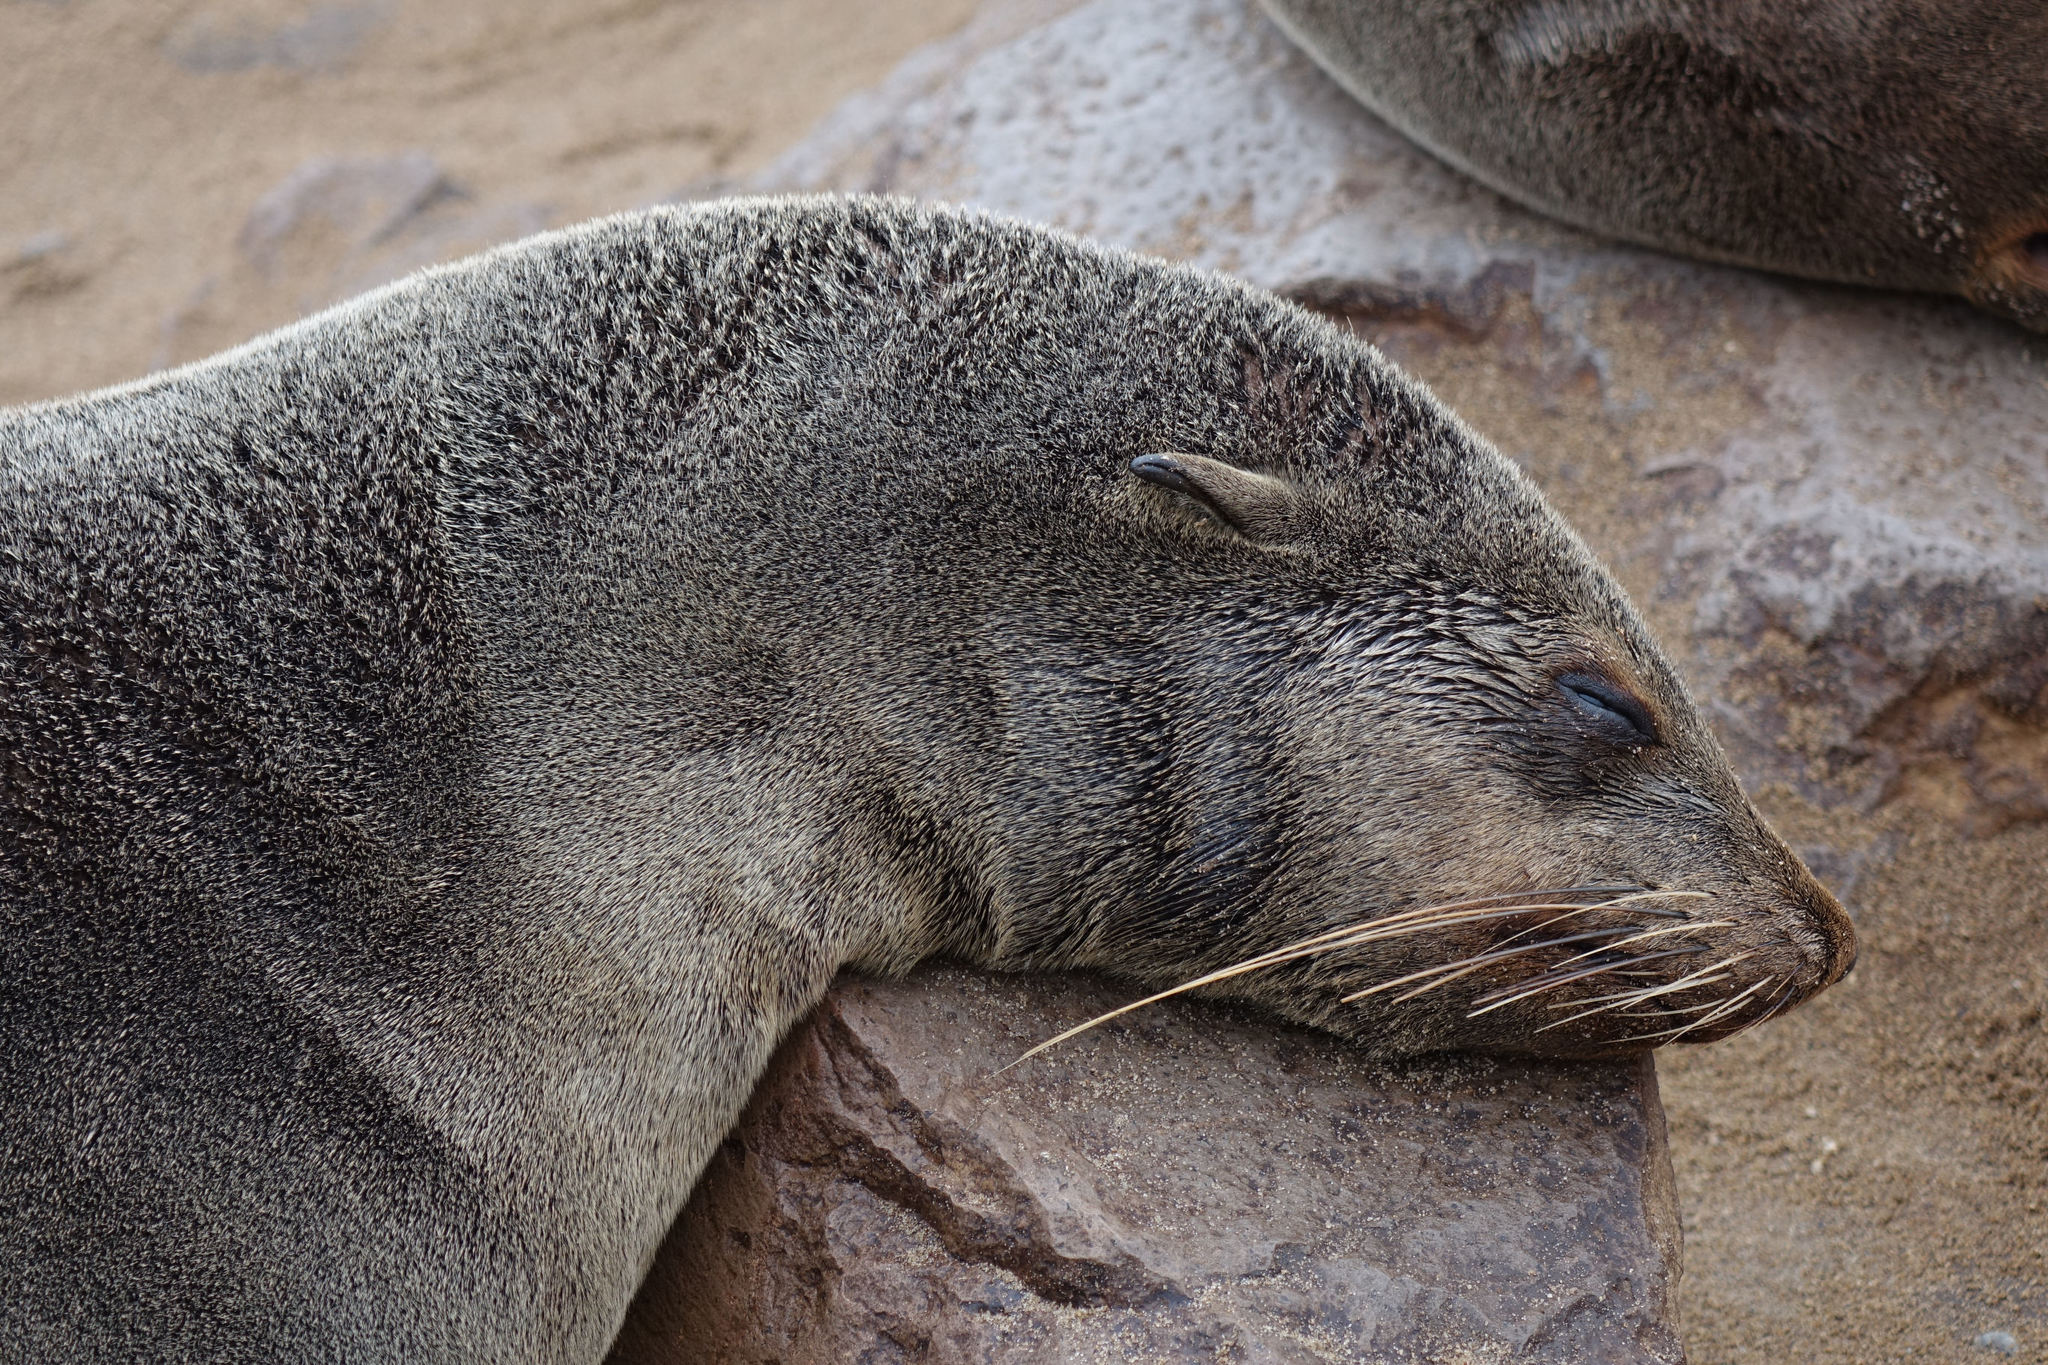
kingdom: Animalia
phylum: Chordata
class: Mammalia
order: Carnivora
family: Otariidae
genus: Arctocephalus
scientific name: Arctocephalus pusillus
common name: Brown fur seal
